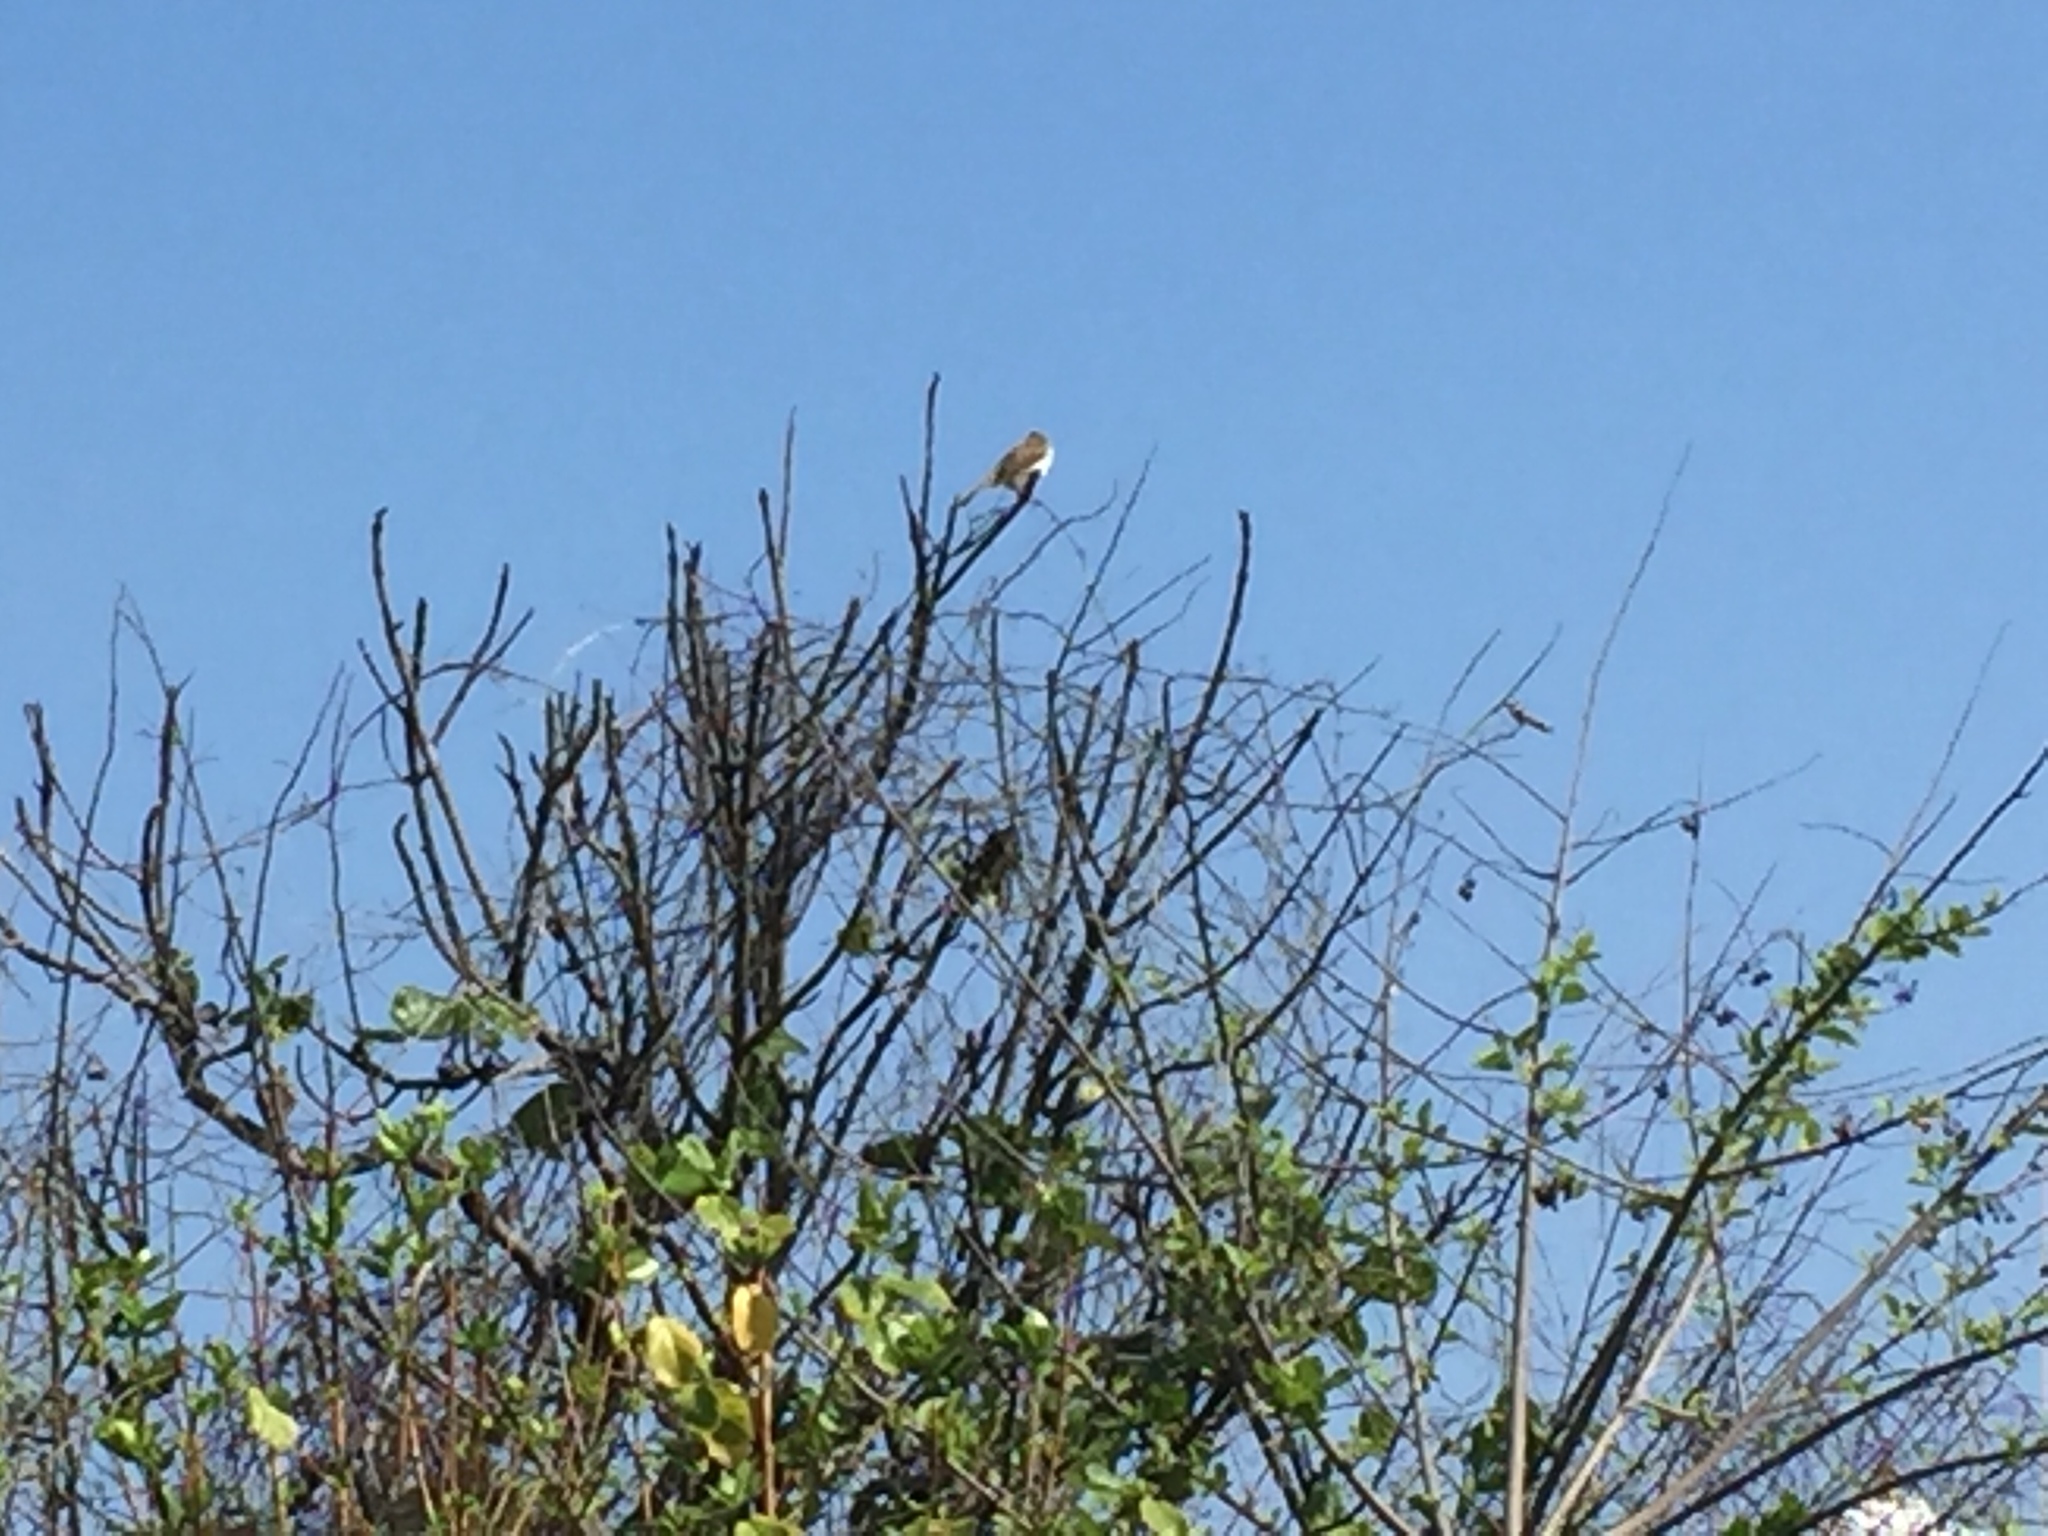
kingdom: Animalia
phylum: Chordata
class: Aves
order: Passeriformes
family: Pycnonotidae
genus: Pycnonotus
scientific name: Pycnonotus goiavier
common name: Yellow-vented bulbul
